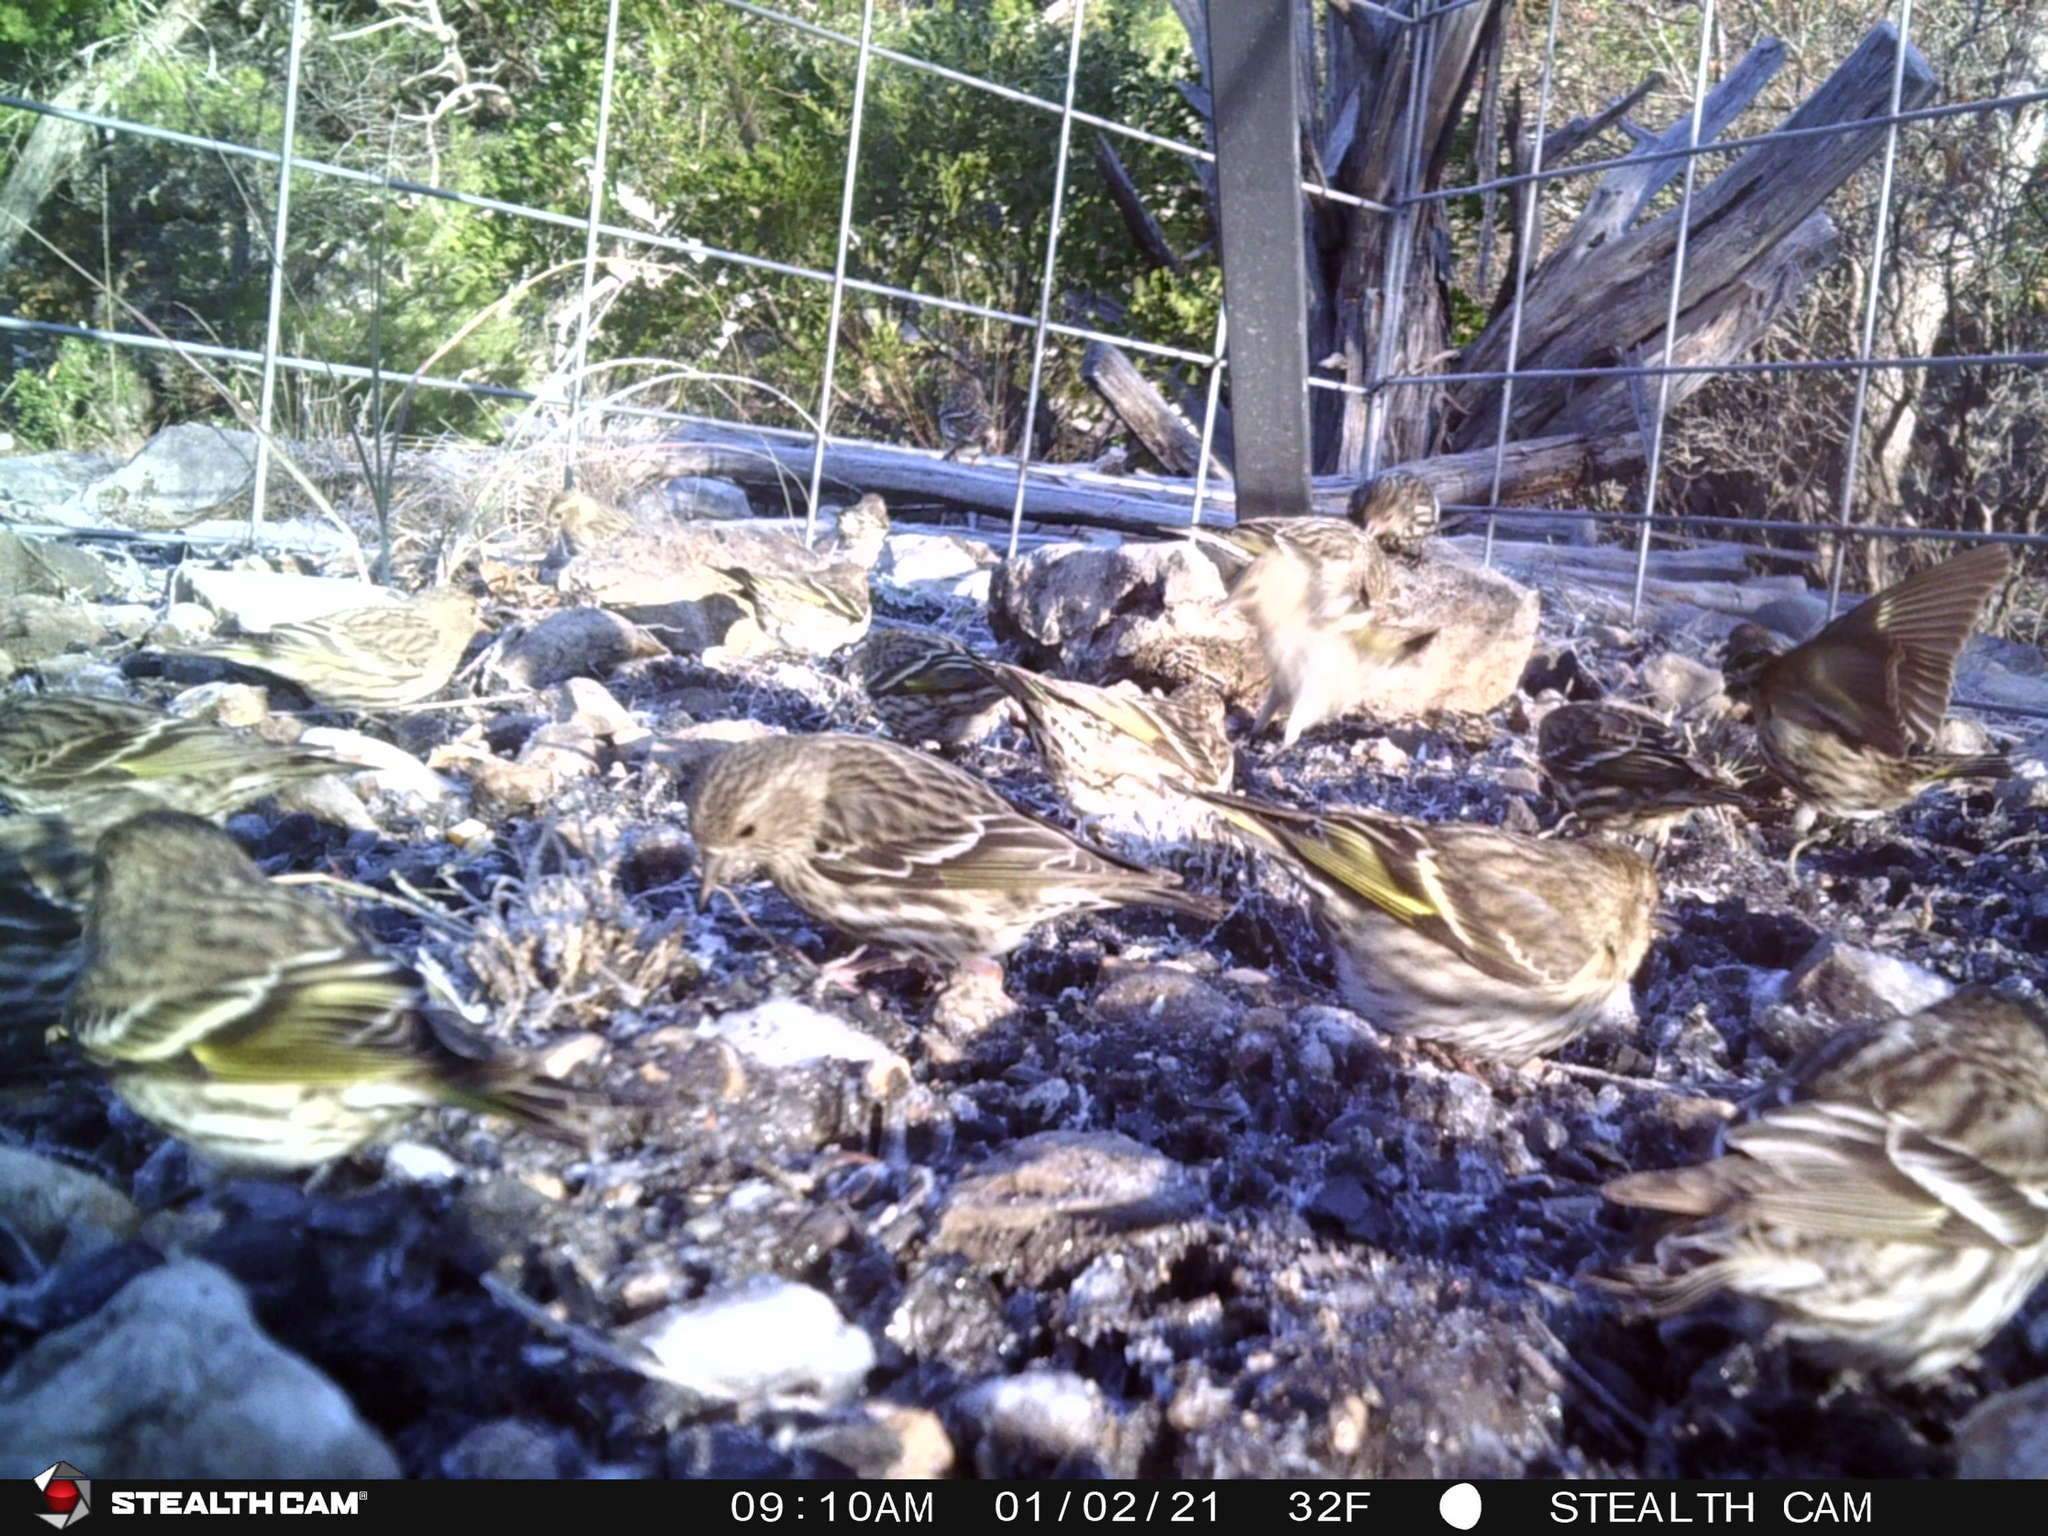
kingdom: Animalia
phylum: Chordata
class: Aves
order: Passeriformes
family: Fringillidae
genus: Spinus
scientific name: Spinus pinus
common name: Pine siskin
